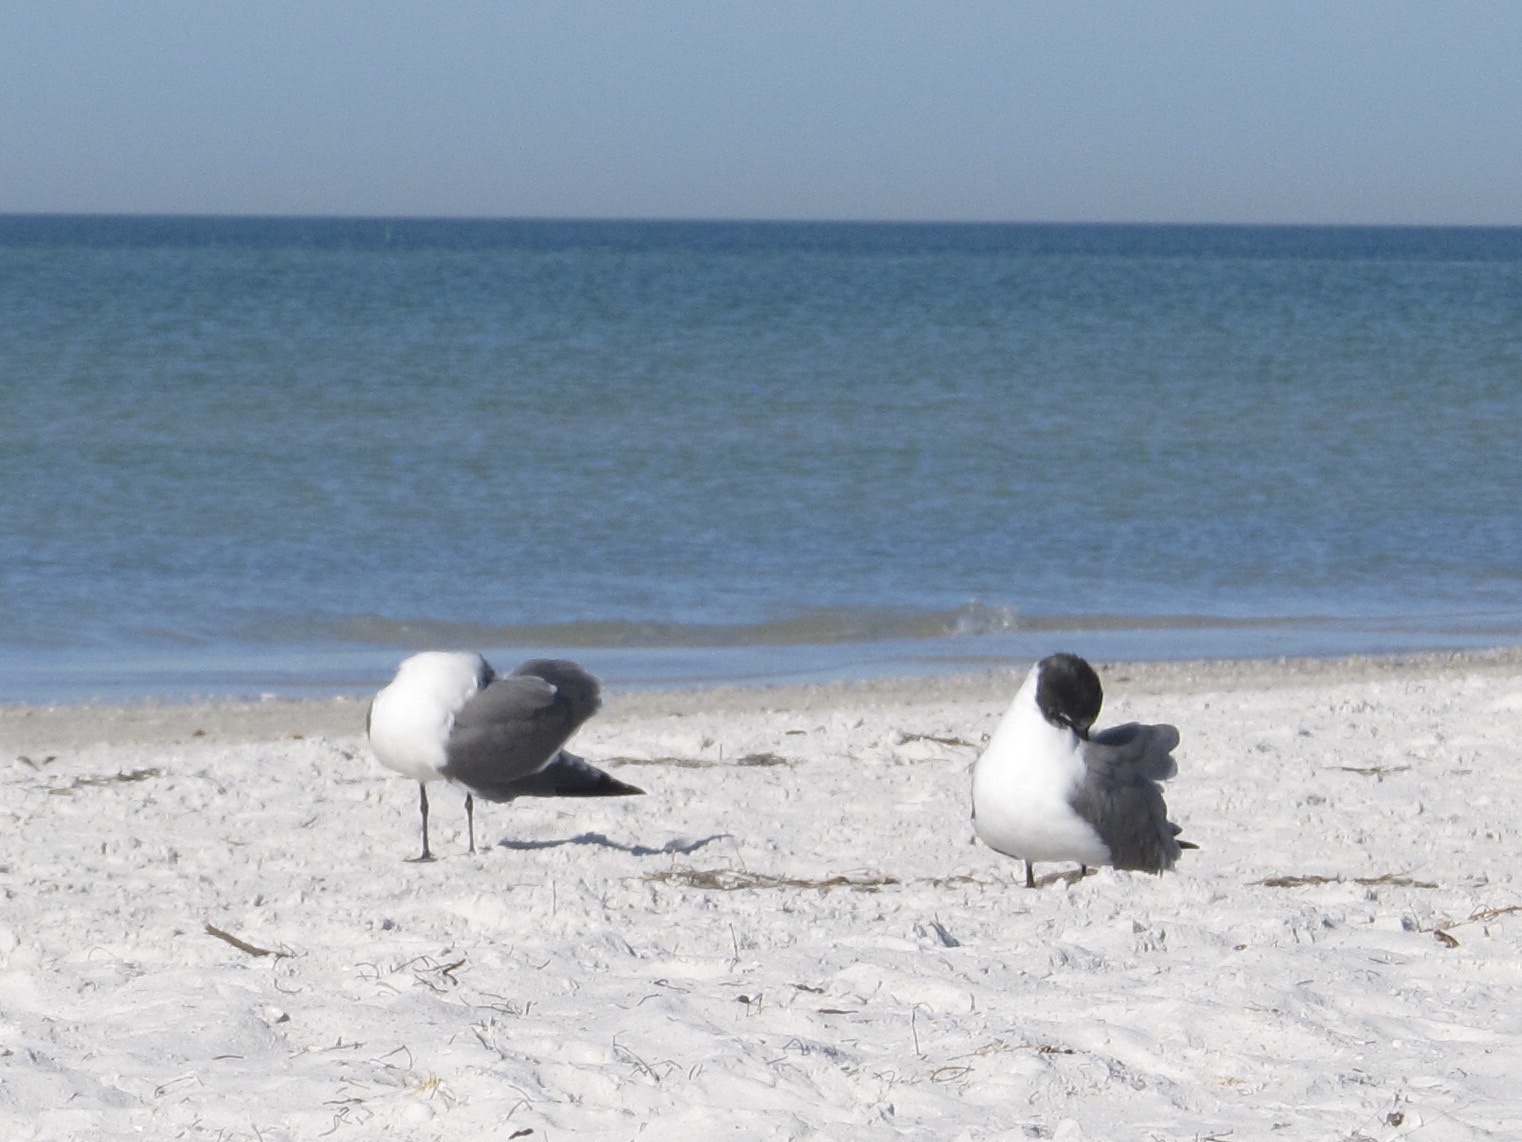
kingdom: Animalia
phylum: Chordata
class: Aves
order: Charadriiformes
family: Laridae
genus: Leucophaeus
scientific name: Leucophaeus atricilla
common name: Laughing gull
